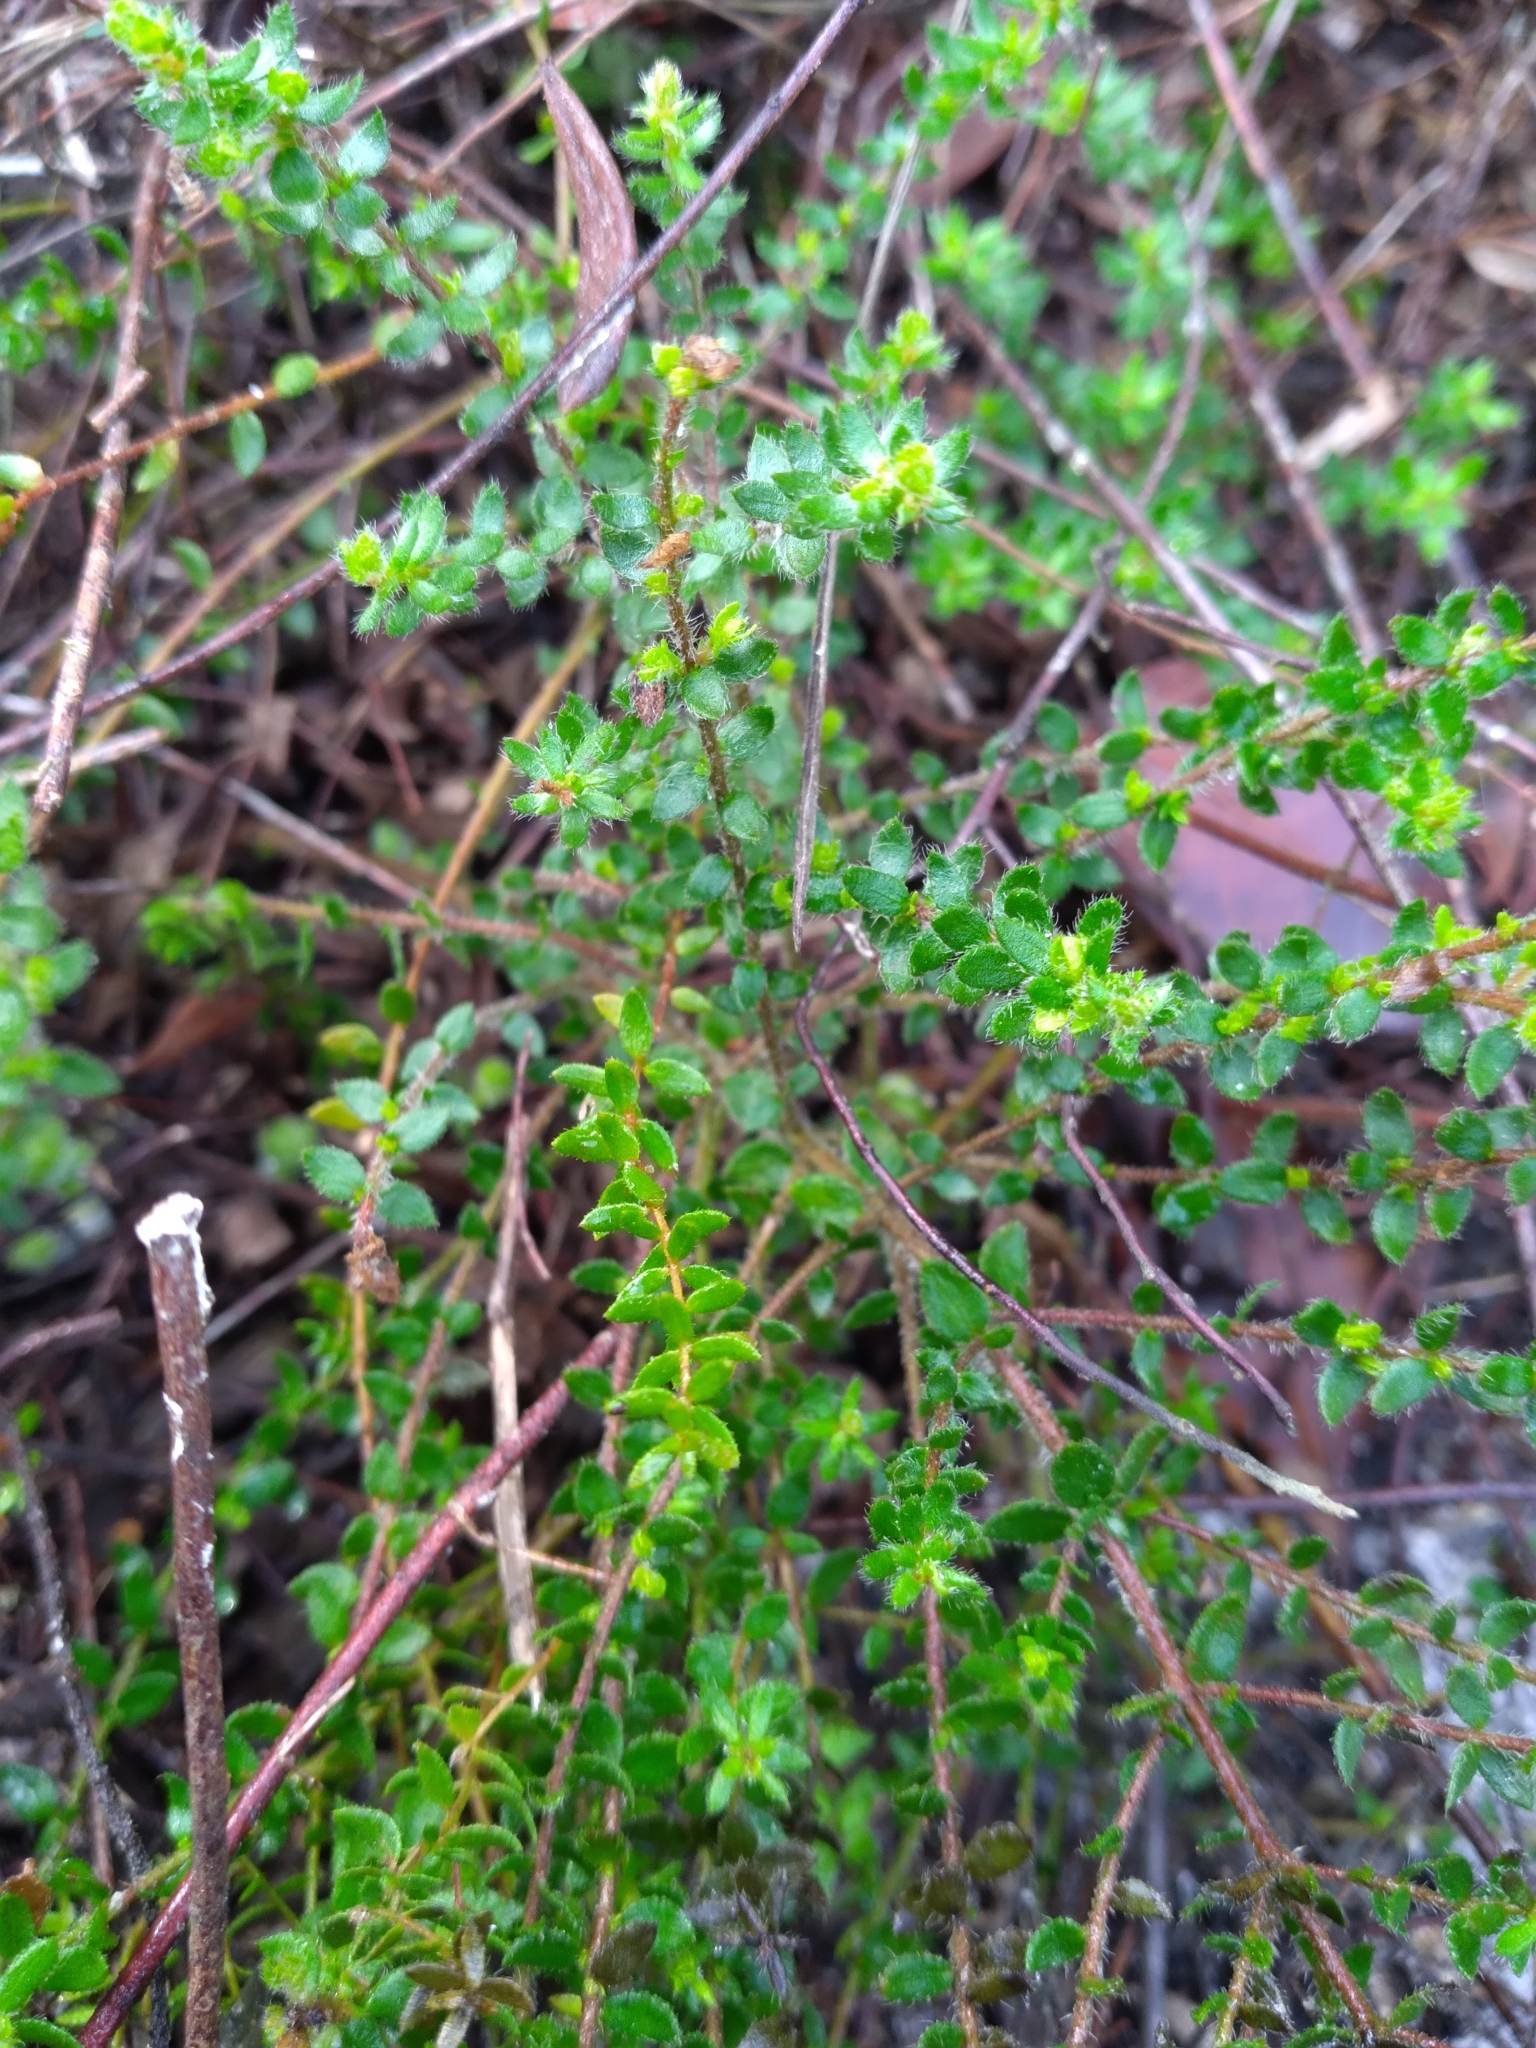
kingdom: Plantae
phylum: Tracheophyta
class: Magnoliopsida
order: Malvales
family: Cistaceae
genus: Lechea
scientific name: Lechea divaricata
